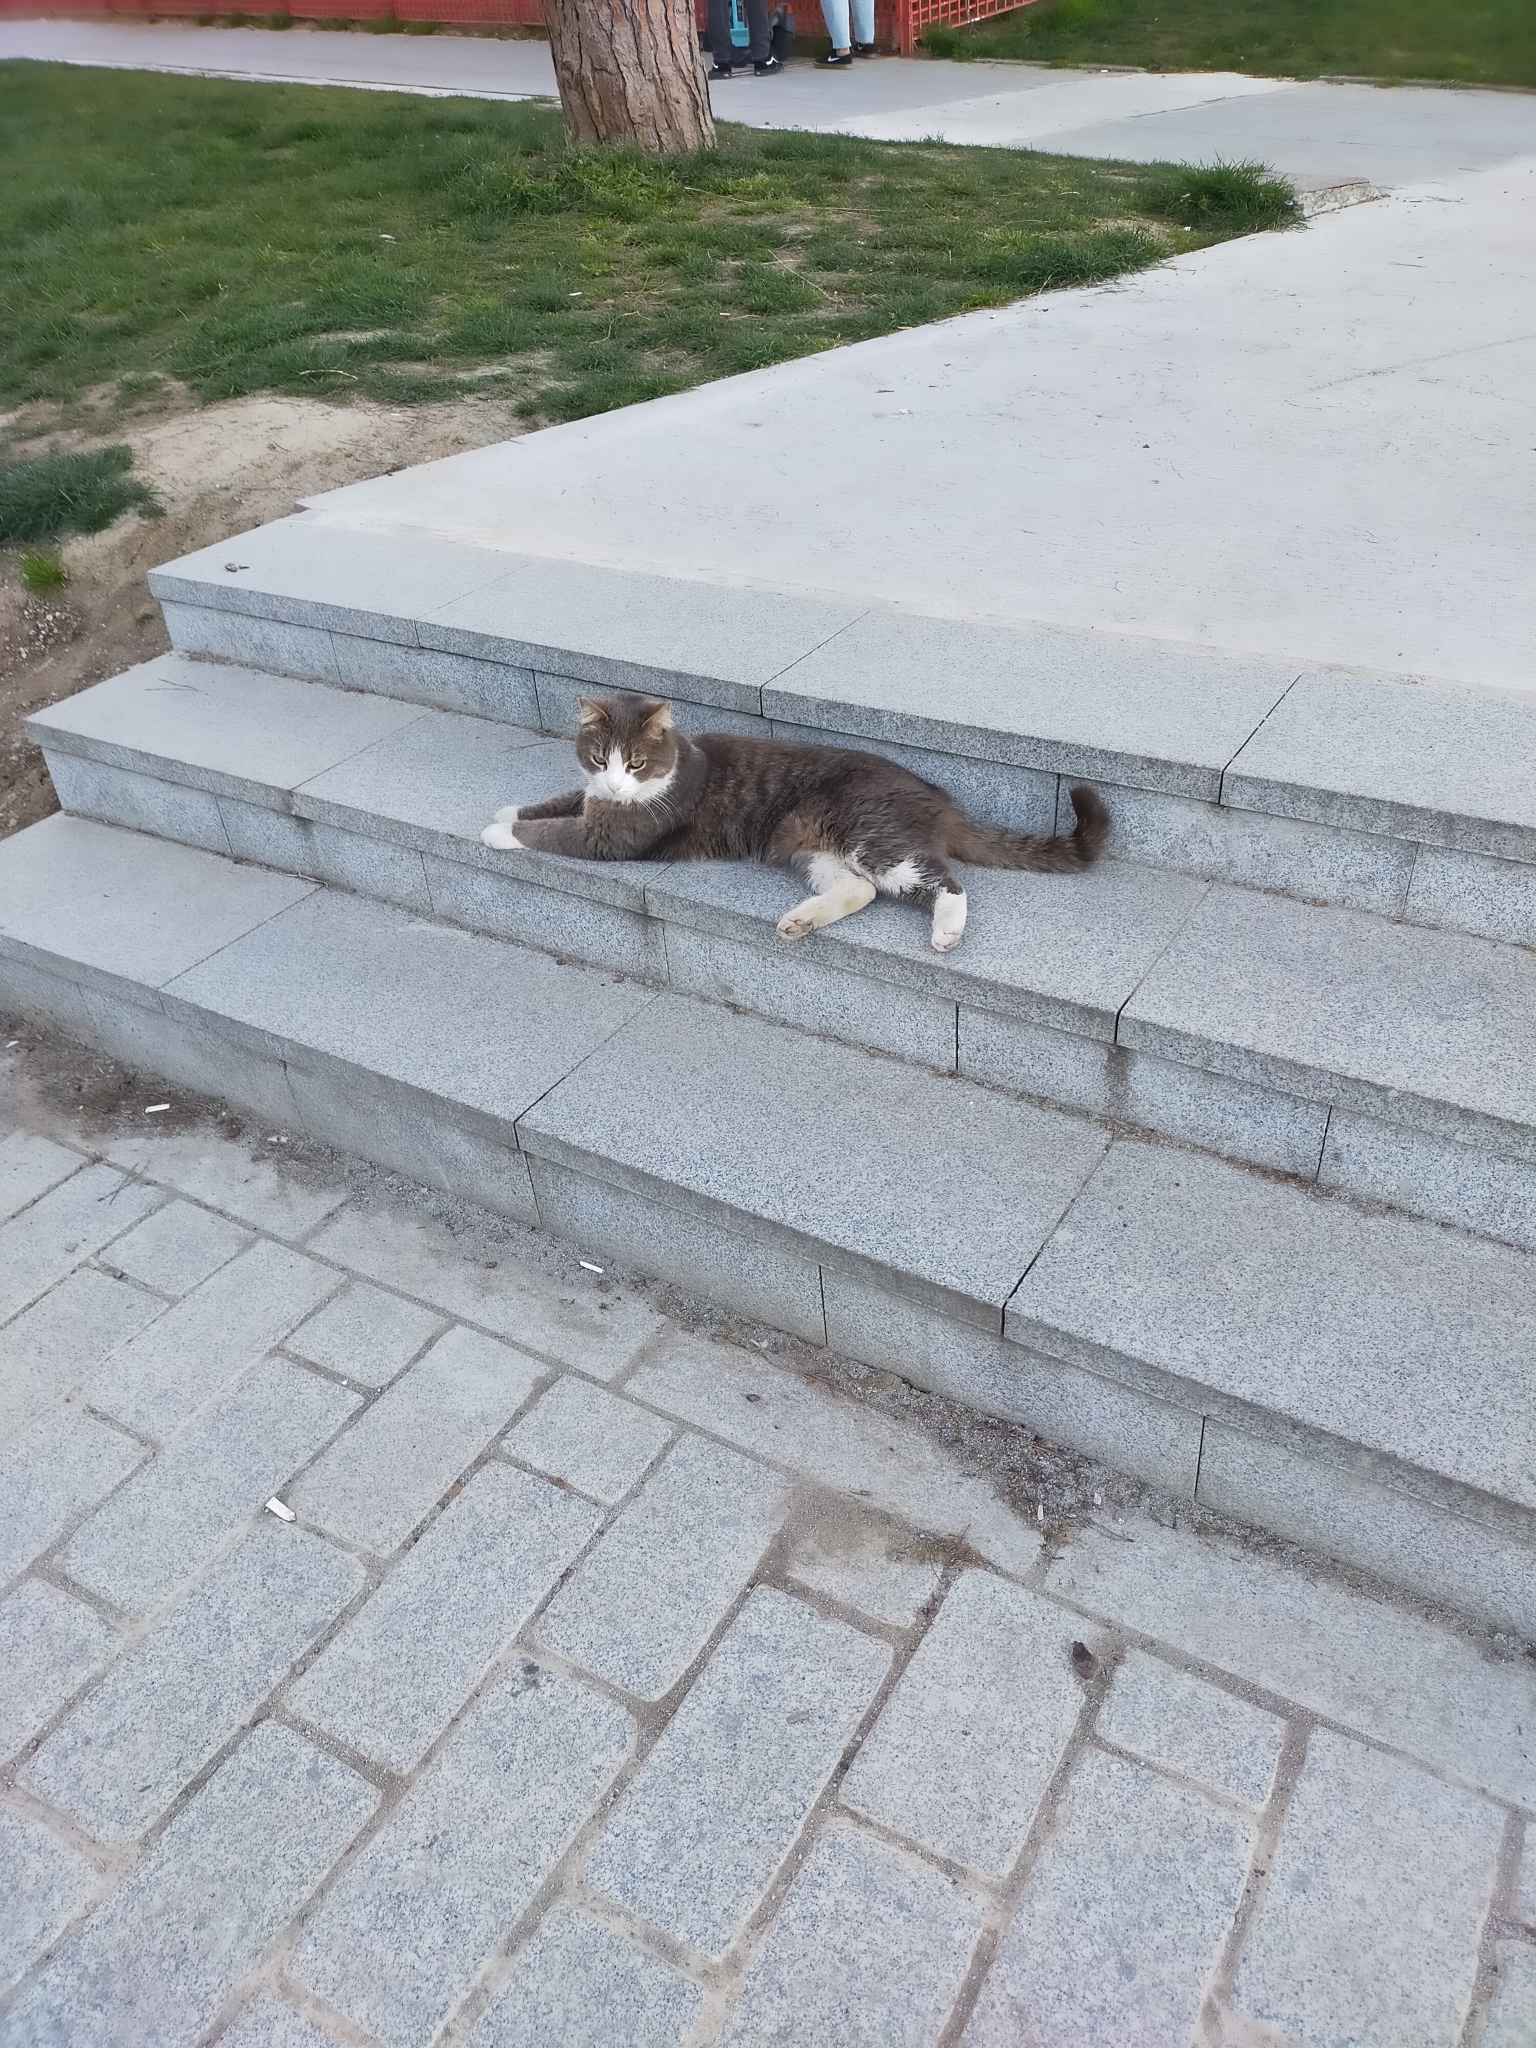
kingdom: Animalia
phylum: Chordata
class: Mammalia
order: Carnivora
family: Felidae
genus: Felis
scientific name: Felis catus
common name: Domestic cat
